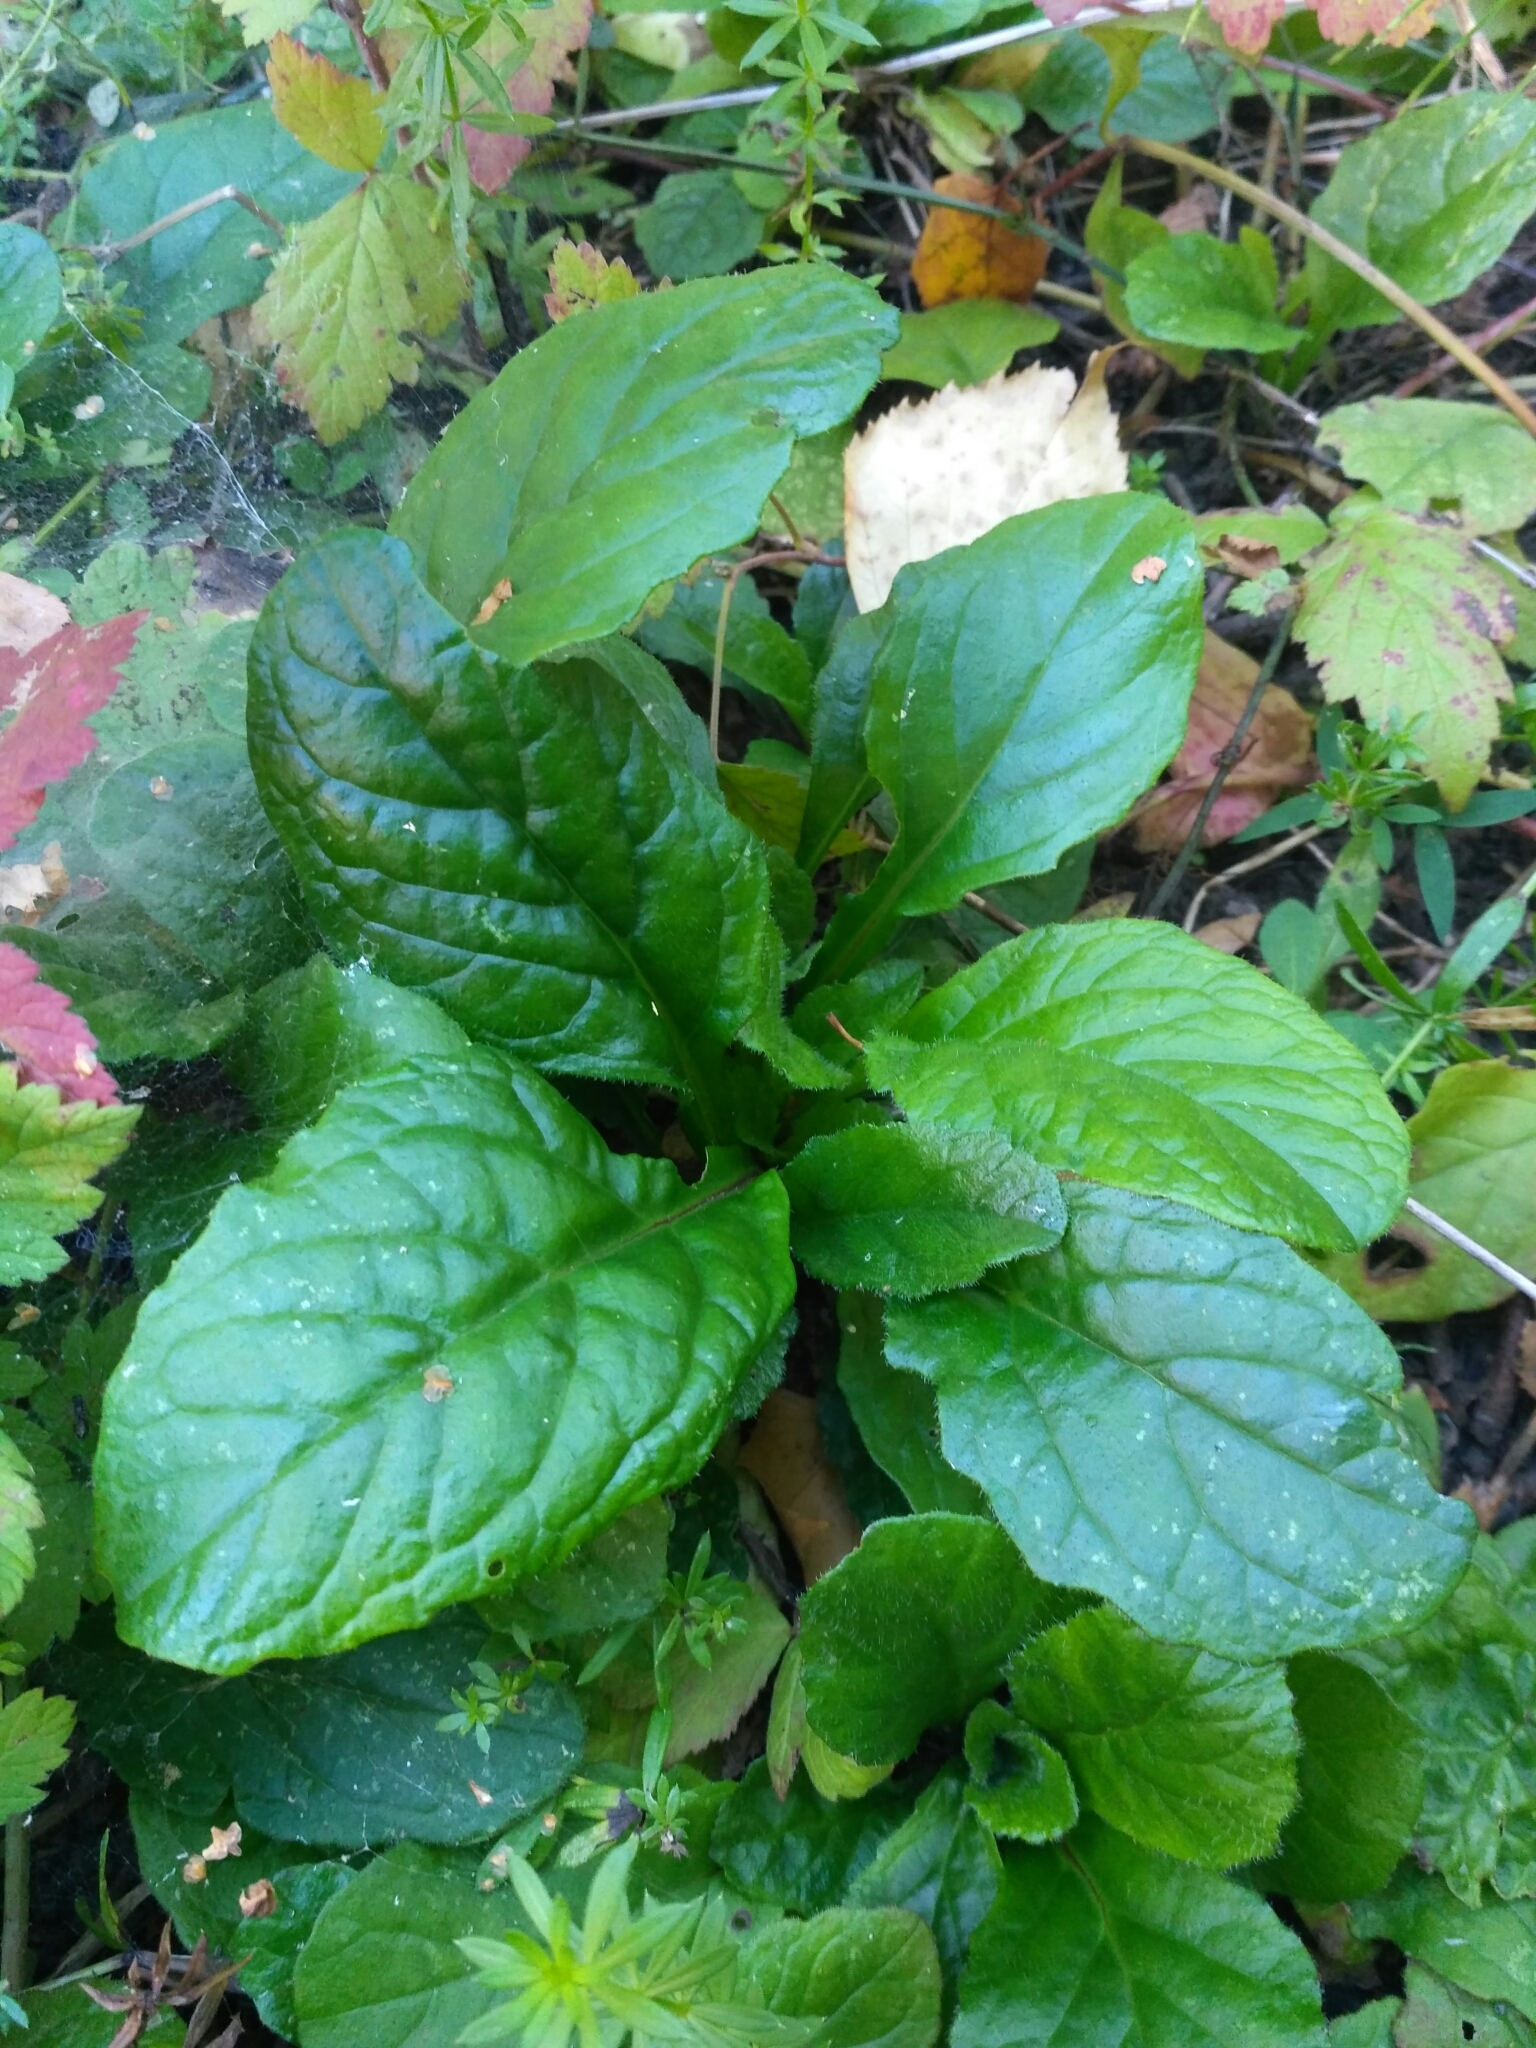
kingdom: Plantae
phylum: Tracheophyta
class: Magnoliopsida
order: Lamiales
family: Lamiaceae
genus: Ajuga
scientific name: Ajuga reptans
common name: Bugle
